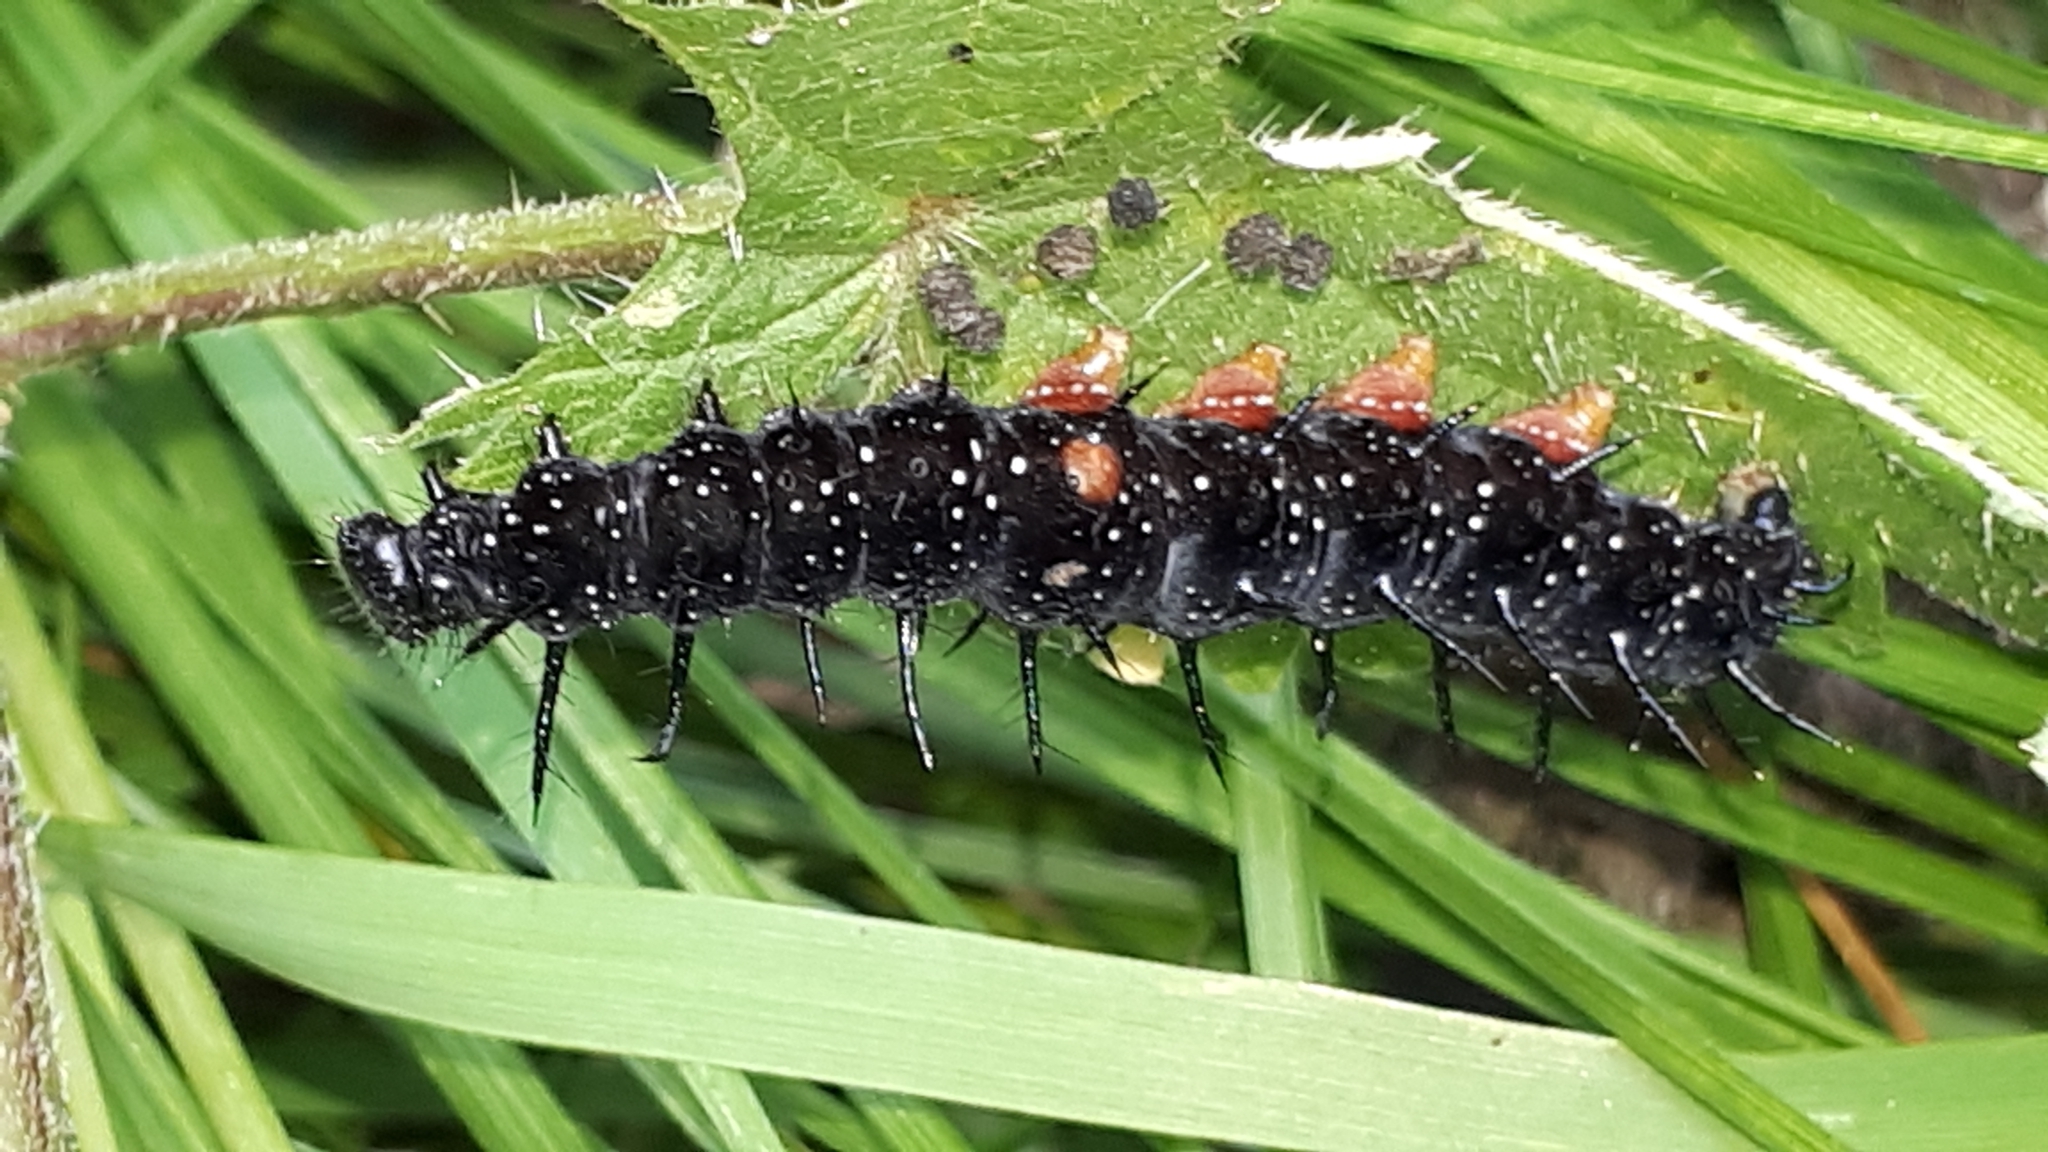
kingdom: Animalia
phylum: Arthropoda
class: Insecta
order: Lepidoptera
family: Nymphalidae
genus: Aglais
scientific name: Aglais io
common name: Peacock
